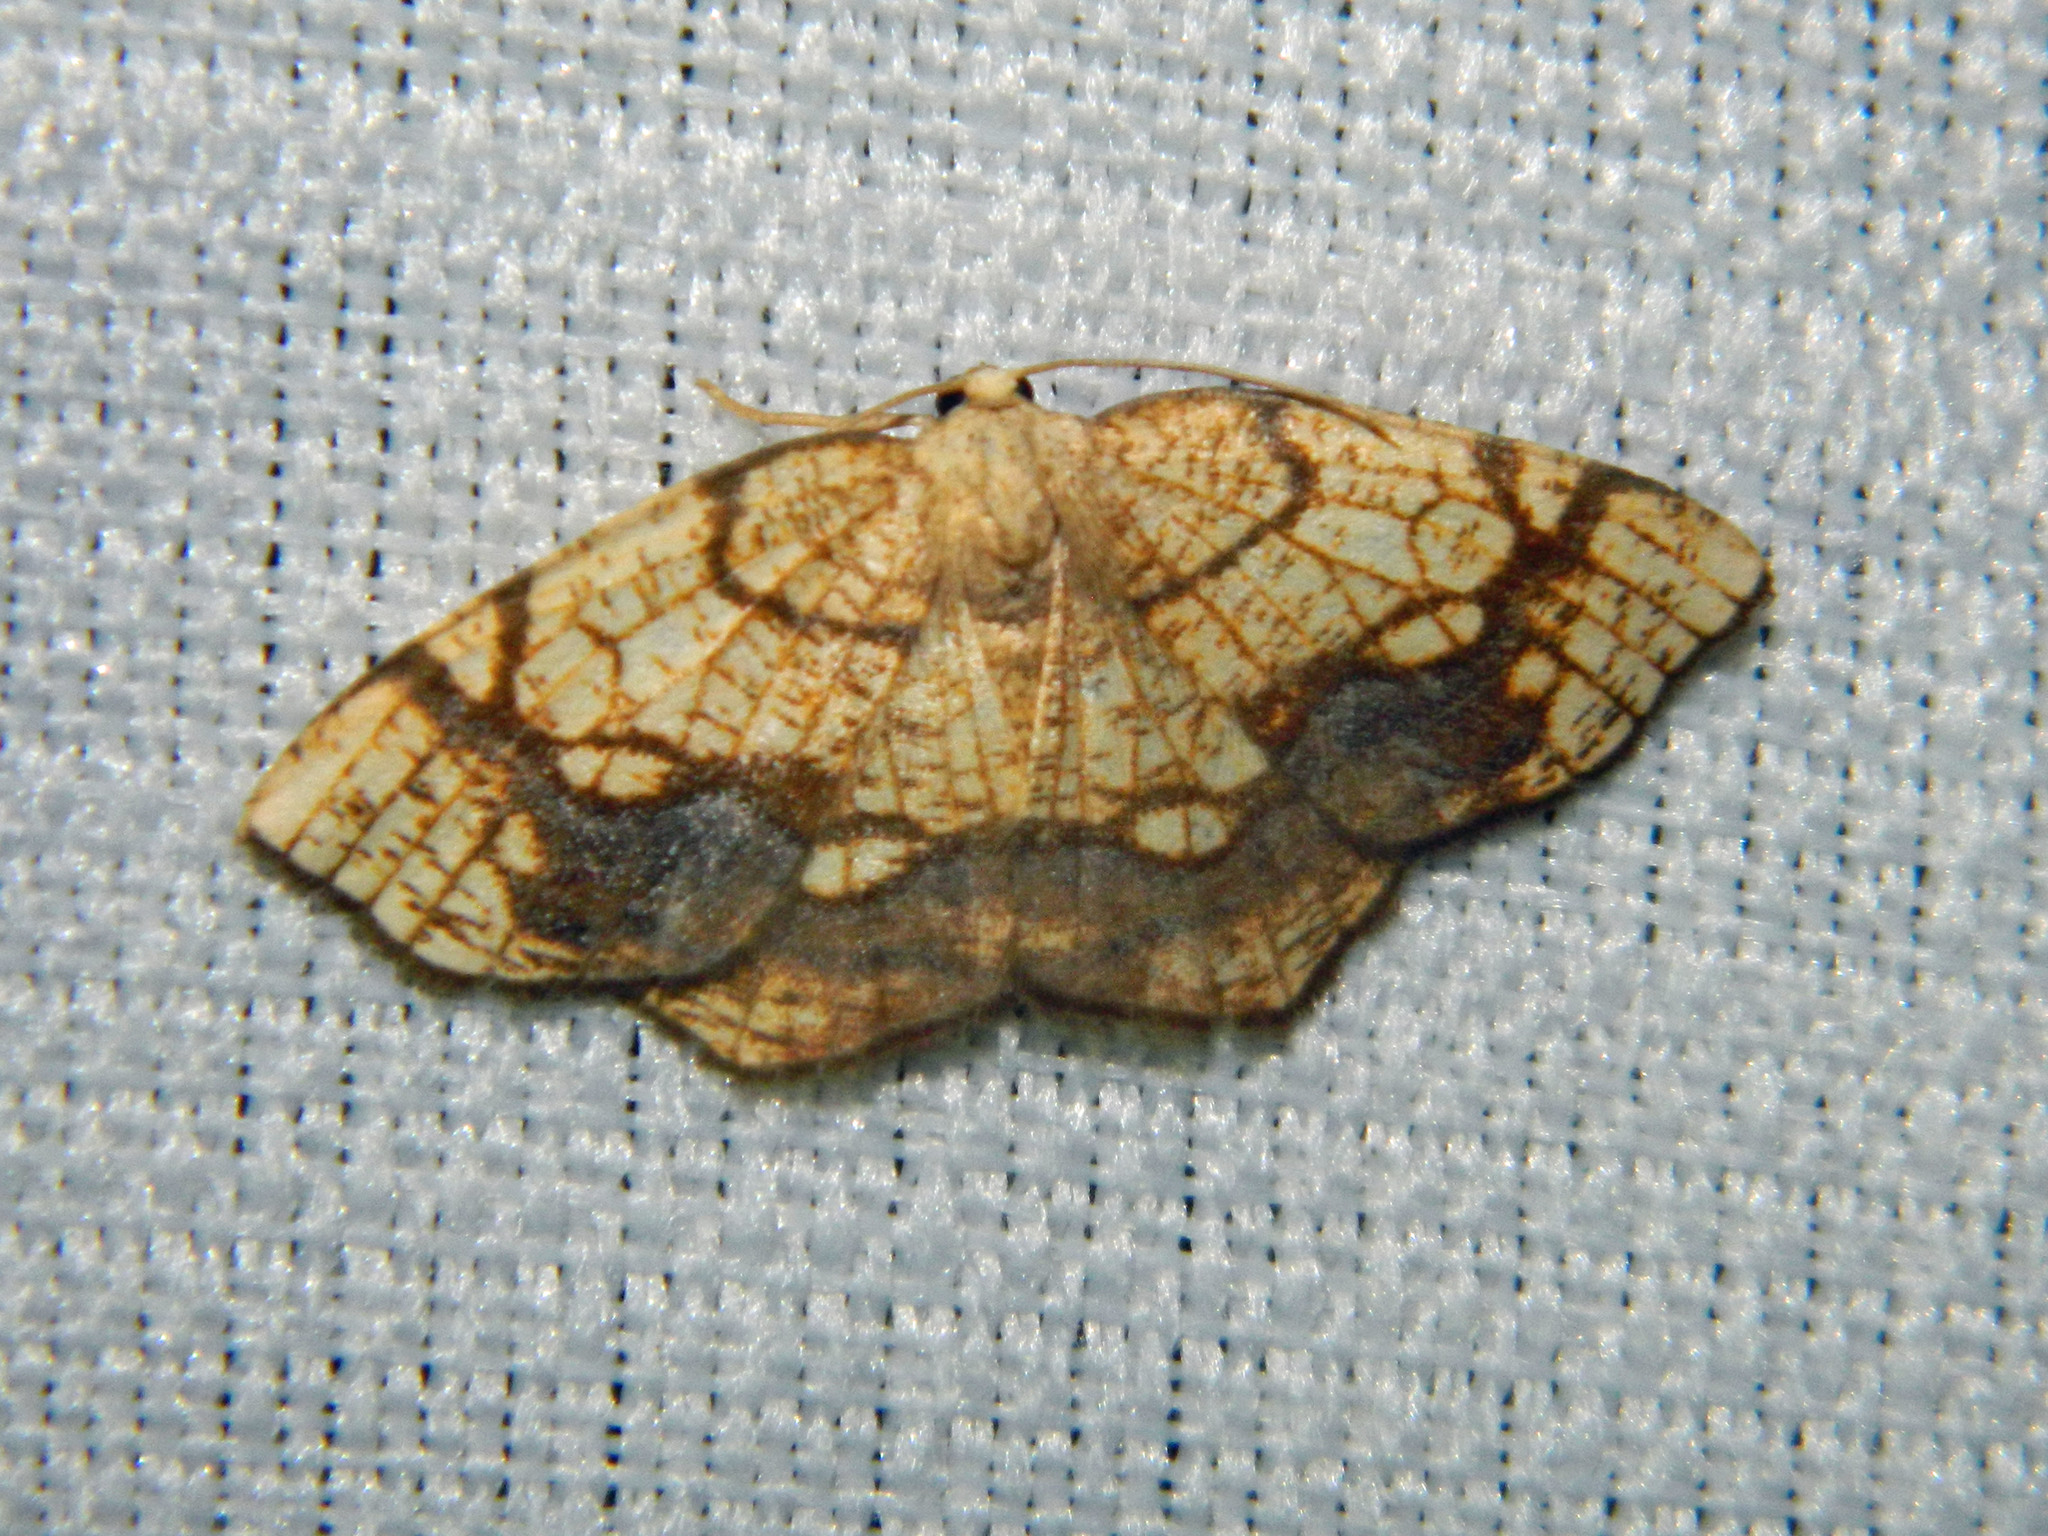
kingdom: Animalia
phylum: Arthropoda
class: Insecta
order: Lepidoptera
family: Geometridae
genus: Nematocampa
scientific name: Nematocampa resistaria
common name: Horned spanworm moth
